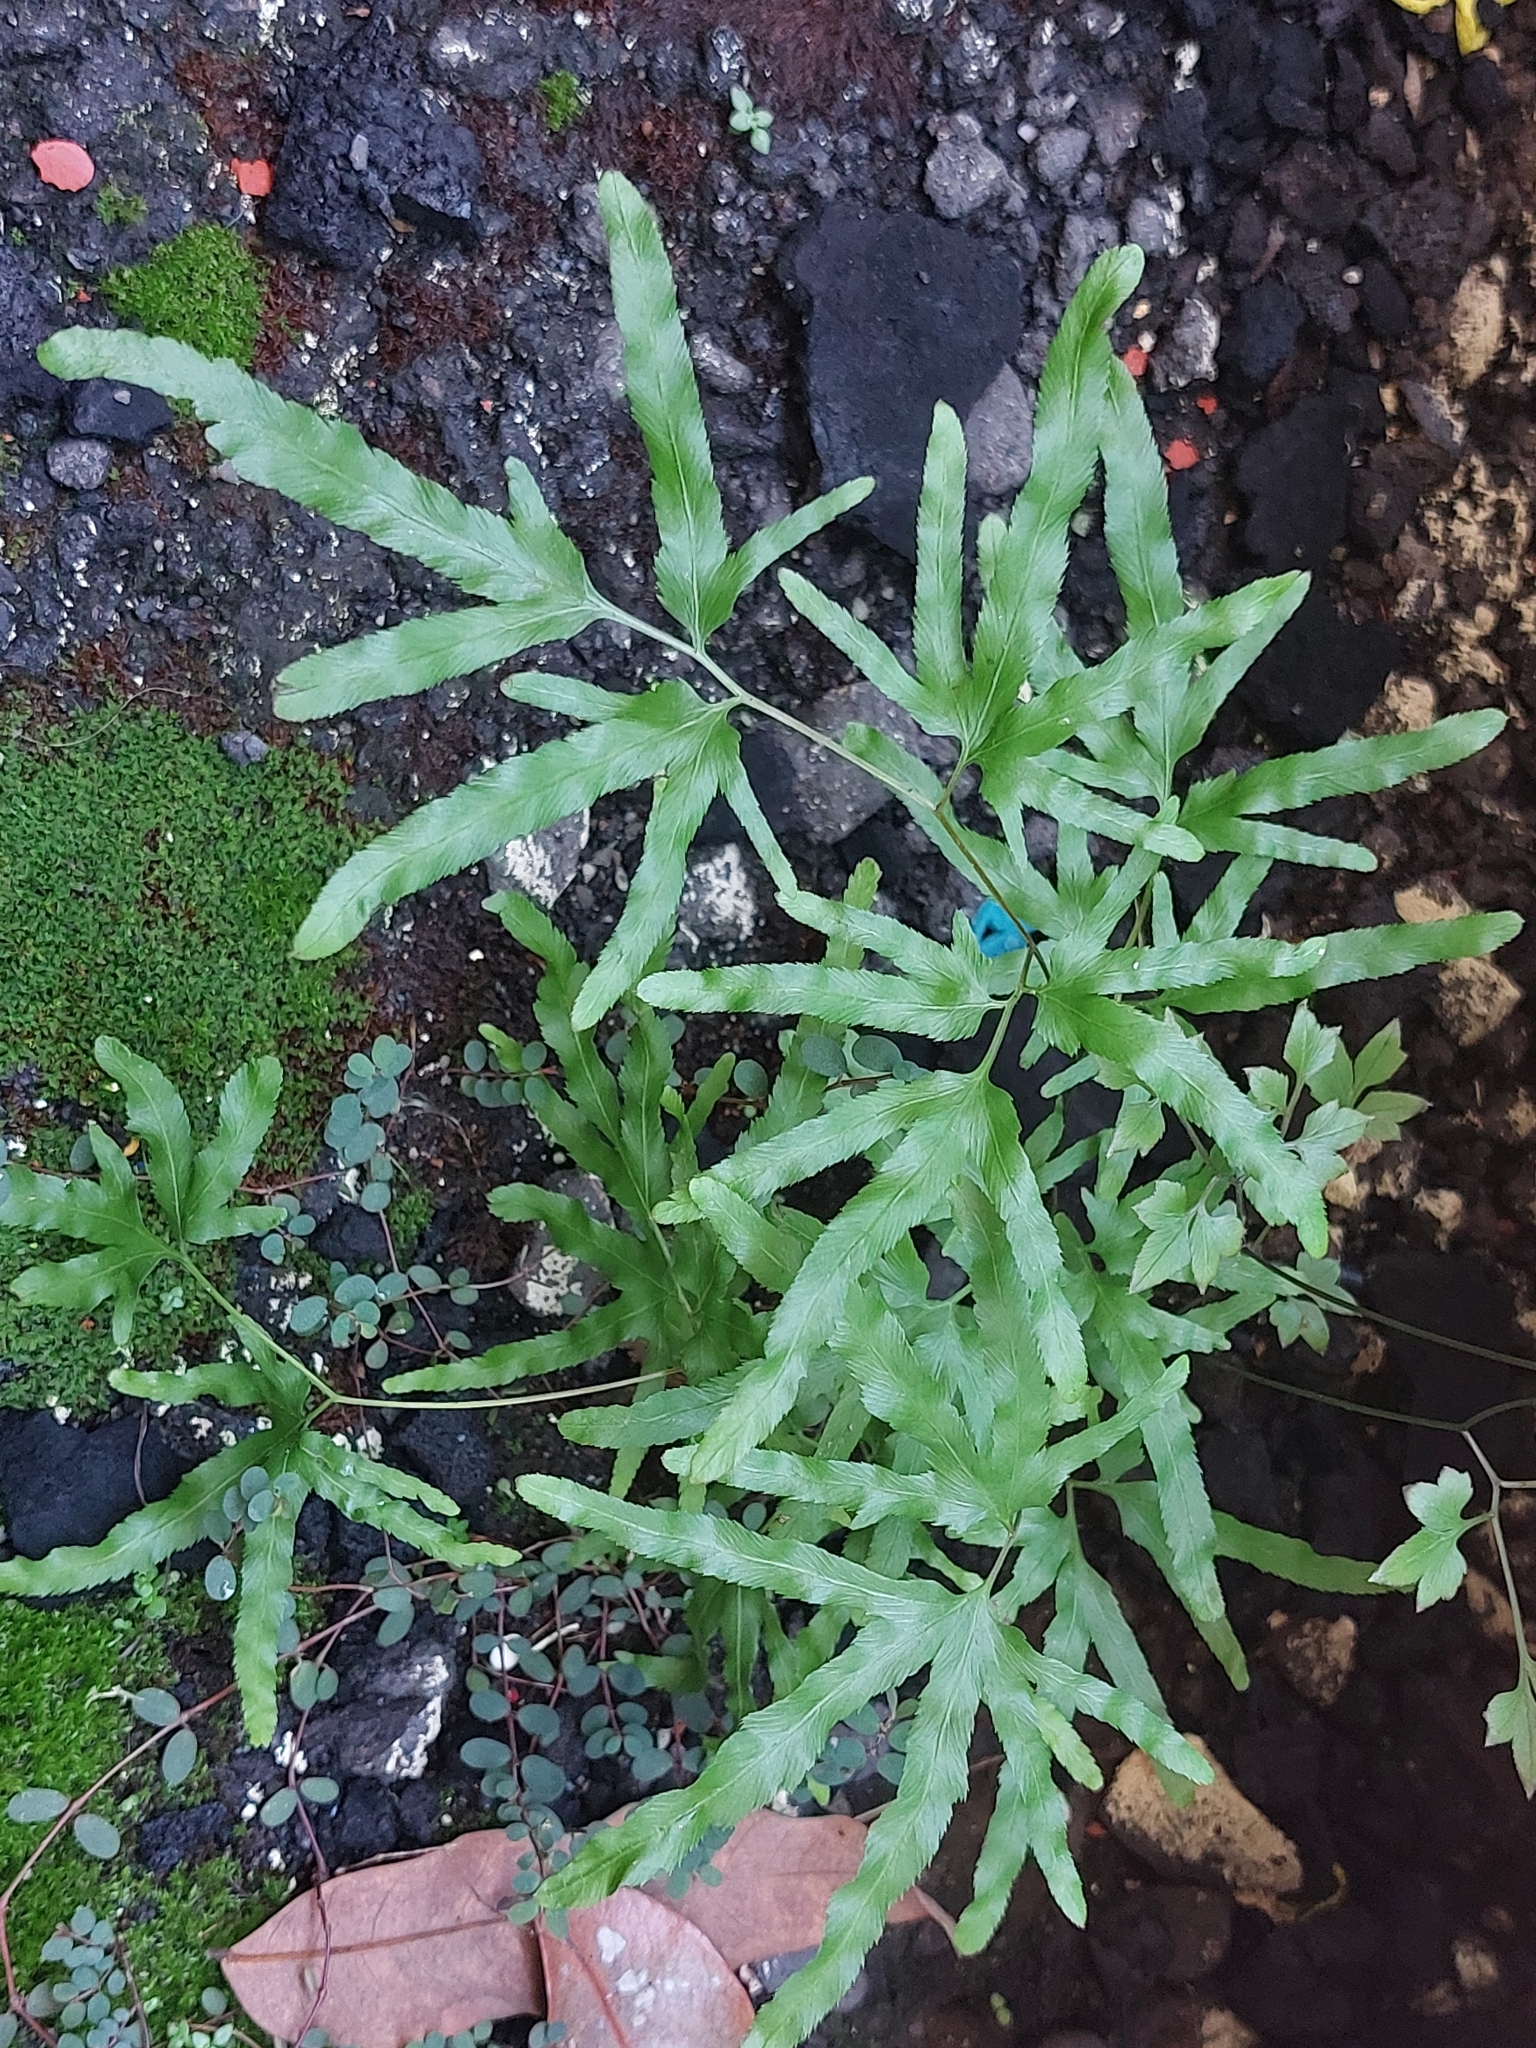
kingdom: Plantae
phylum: Tracheophyta
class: Polypodiopsida
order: Schizaeales
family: Lygodiaceae
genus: Lygodium
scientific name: Lygodium japonicum
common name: Japanese climbing fern
